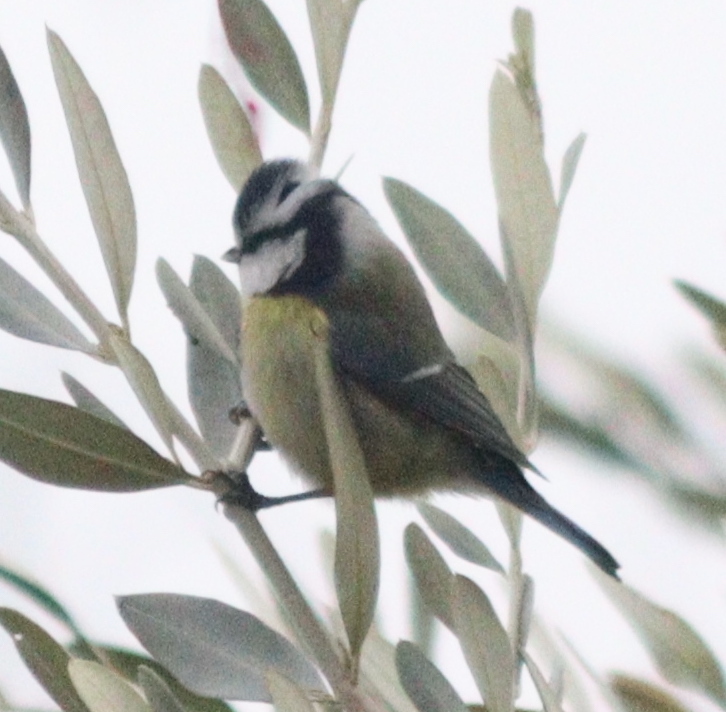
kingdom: Animalia
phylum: Chordata
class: Aves
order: Passeriformes
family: Paridae
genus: Cyanistes
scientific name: Cyanistes caeruleus
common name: Eurasian blue tit
